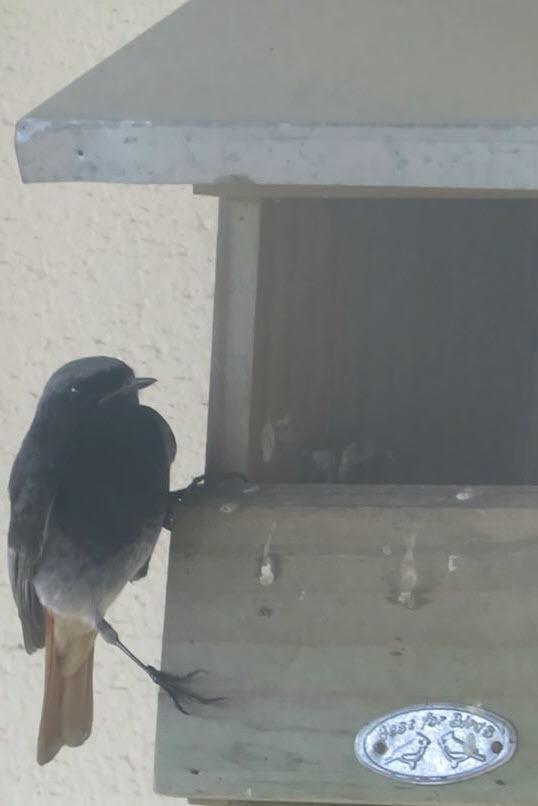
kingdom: Animalia
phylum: Chordata
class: Aves
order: Passeriformes
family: Muscicapidae
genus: Phoenicurus
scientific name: Phoenicurus ochruros
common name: Black redstart
